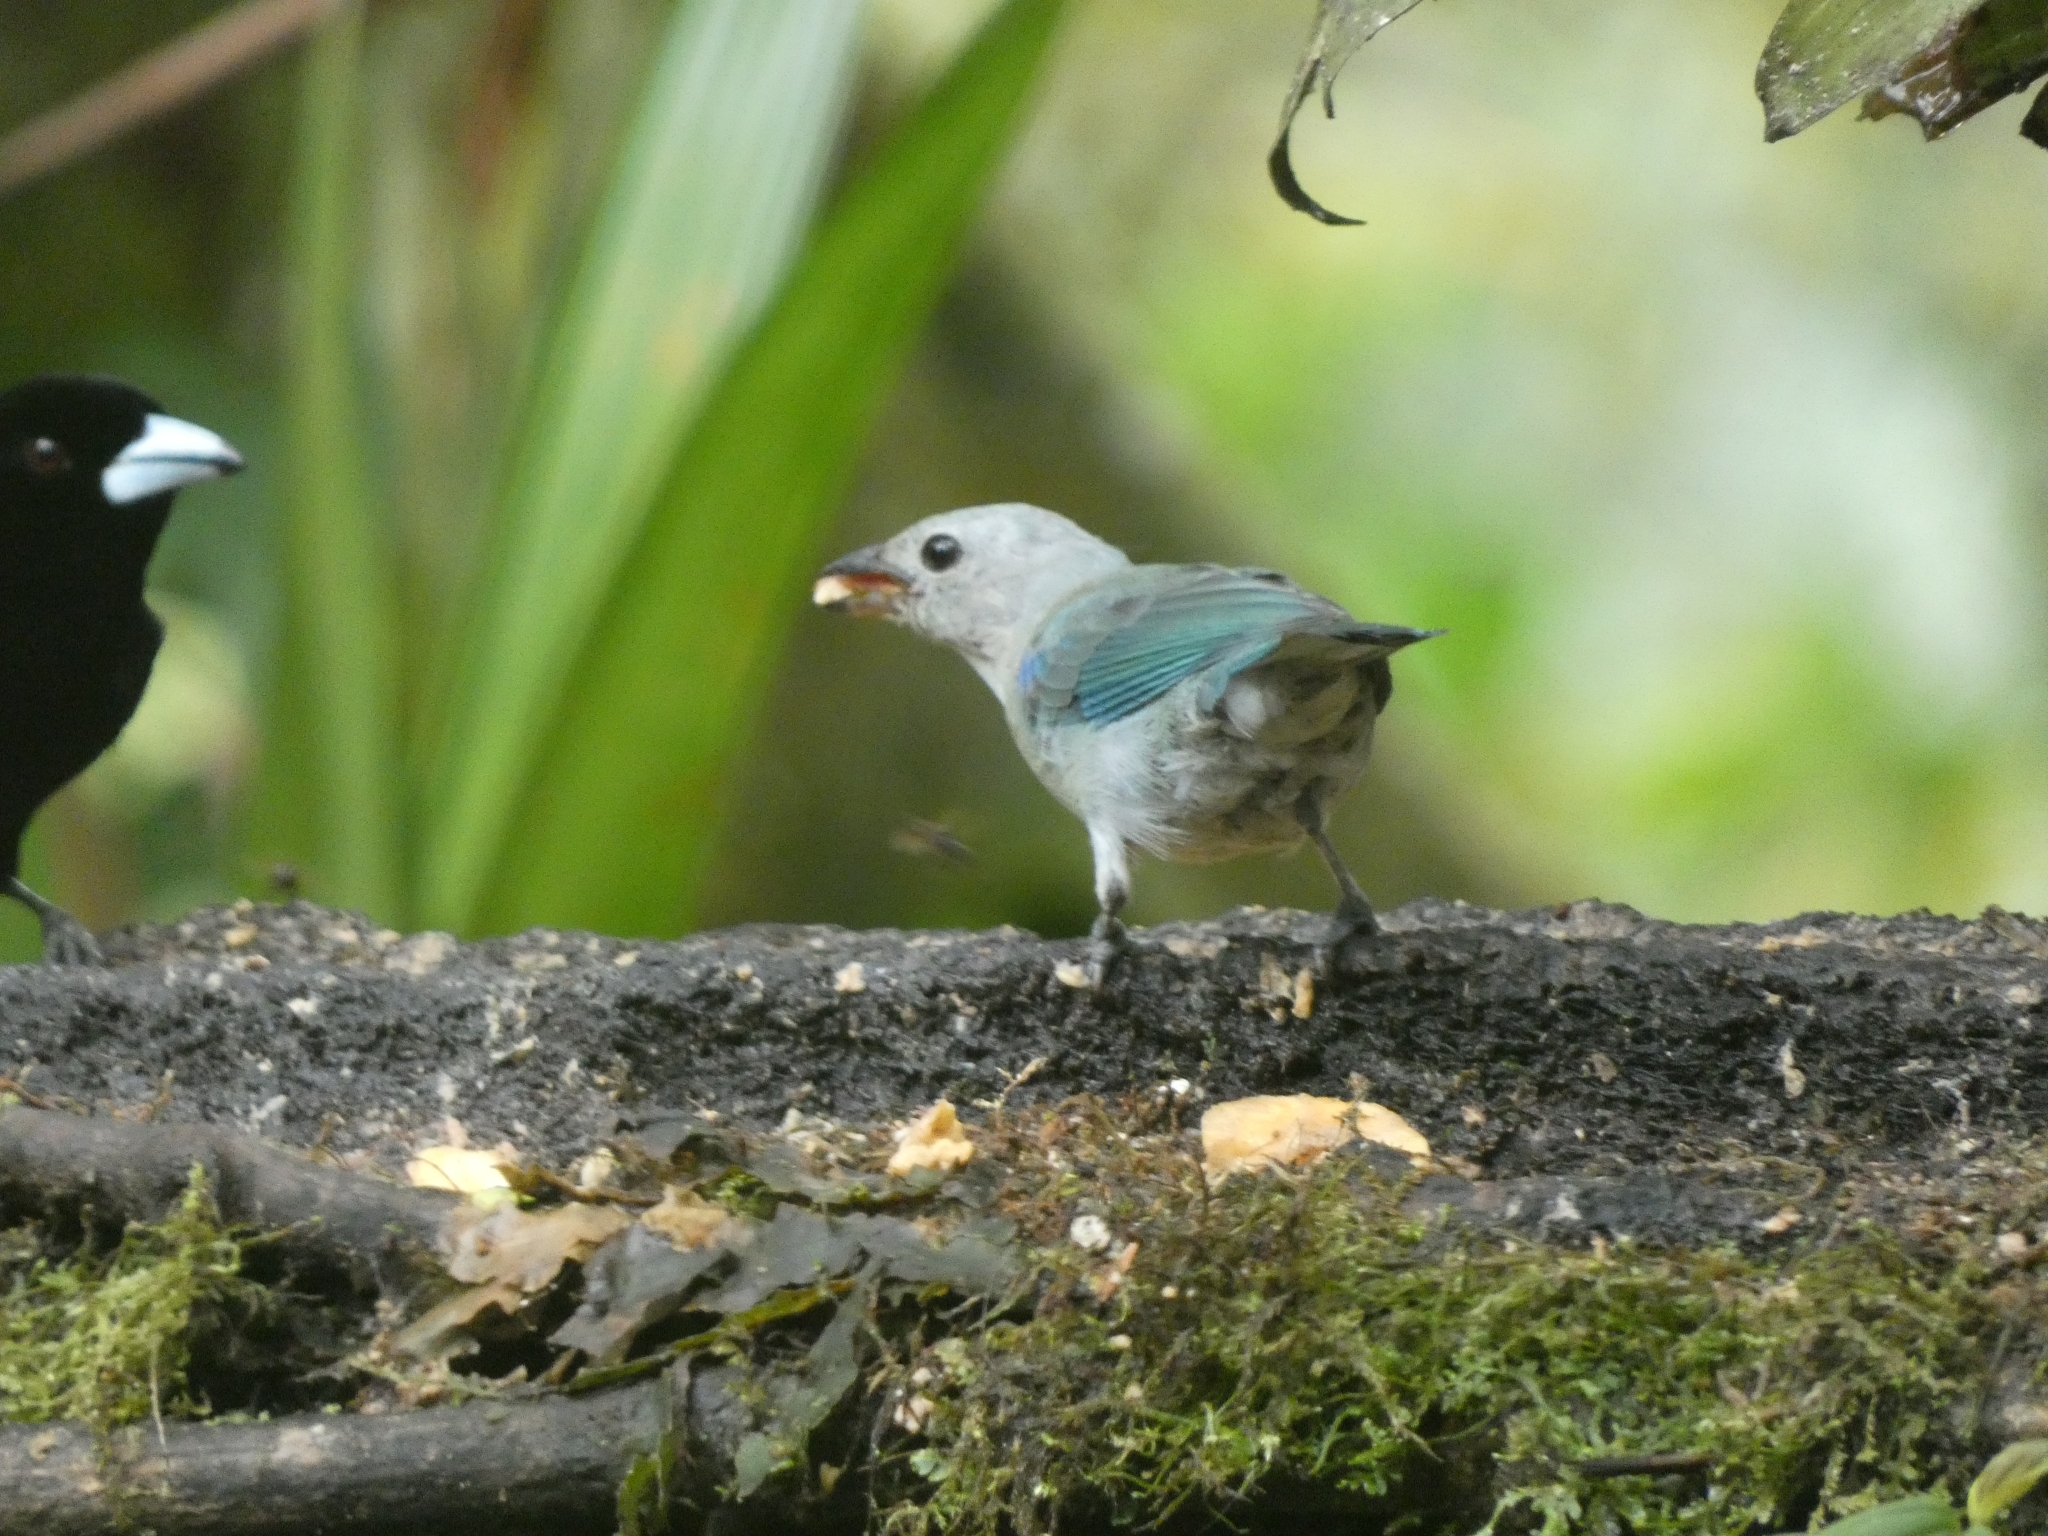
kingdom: Animalia
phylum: Chordata
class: Aves
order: Passeriformes
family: Thraupidae
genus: Thraupis
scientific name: Thraupis episcopus
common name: Blue-grey tanager
